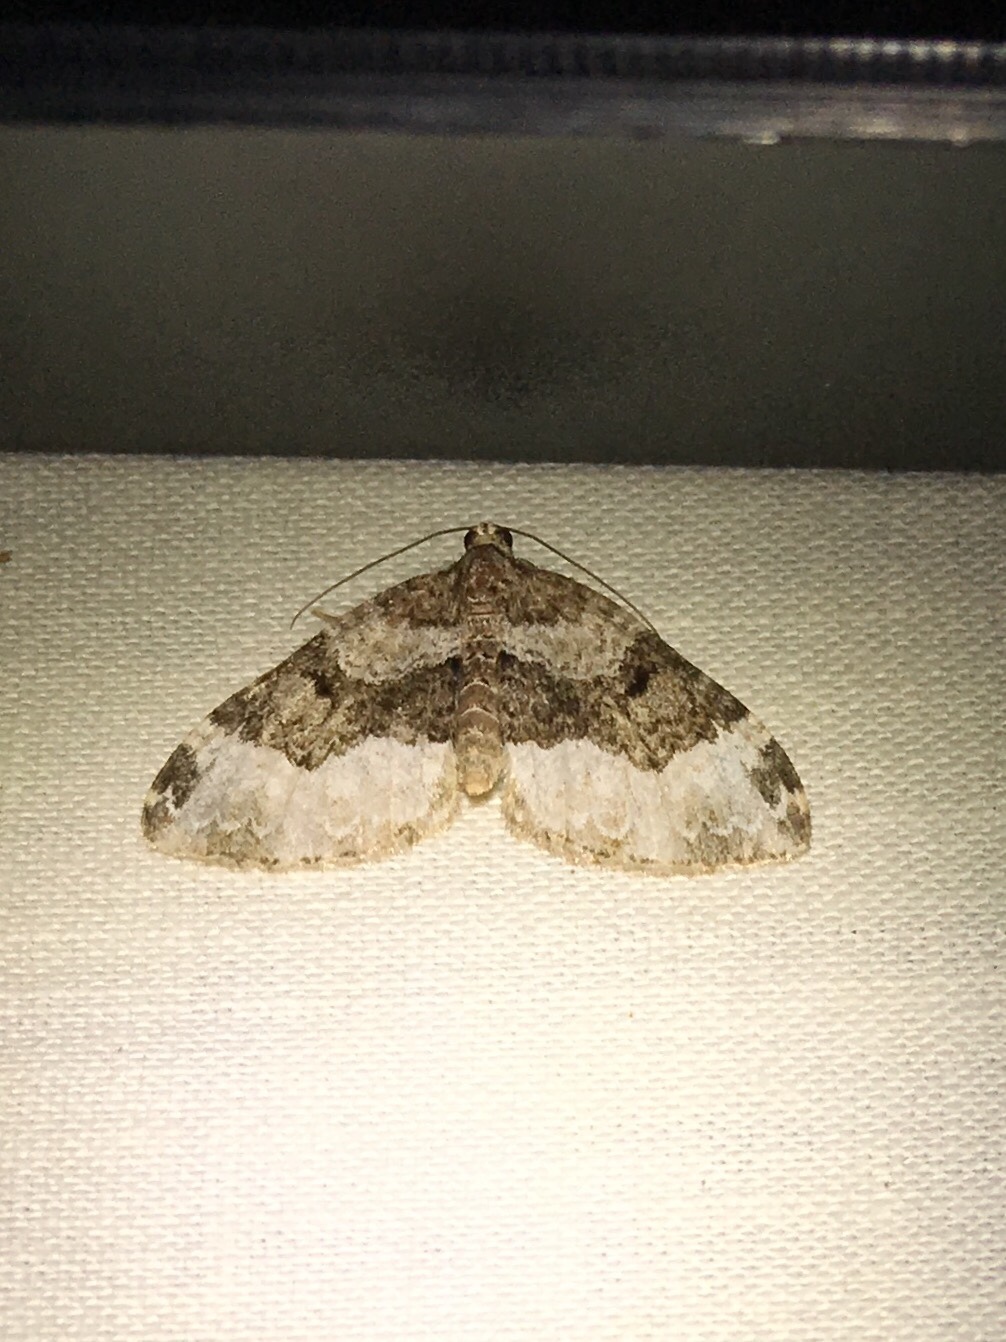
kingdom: Animalia
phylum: Arthropoda
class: Insecta
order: Lepidoptera
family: Geometridae
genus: Euphyia
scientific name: Euphyia intermediata
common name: Sharp-angled carpet
